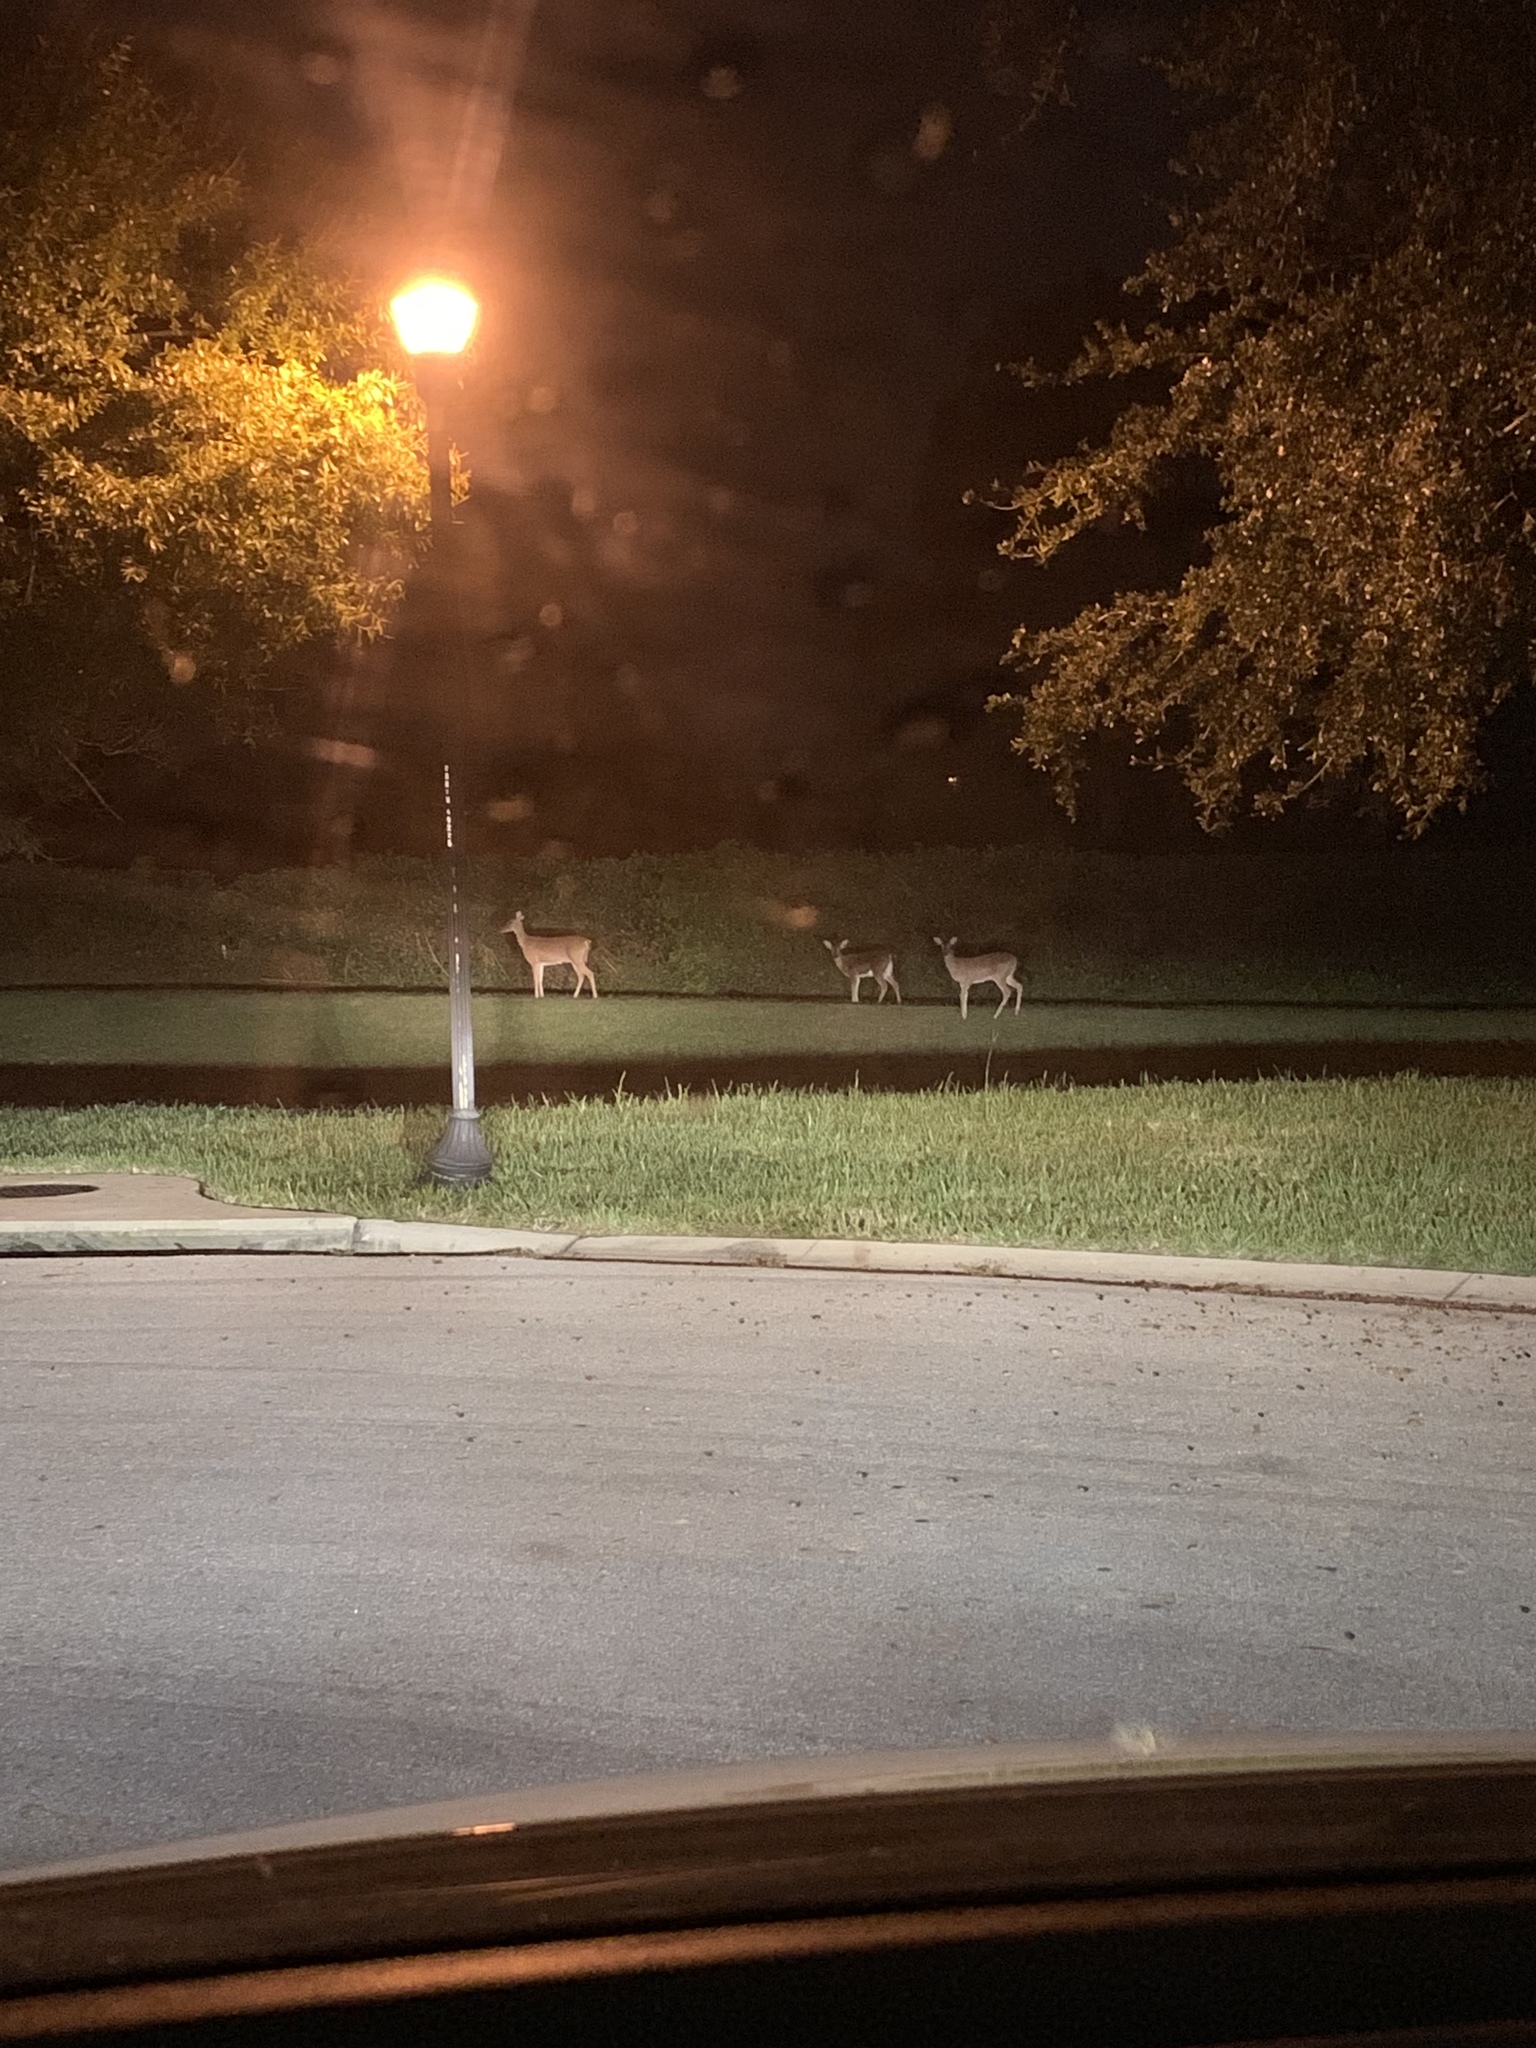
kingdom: Animalia
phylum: Chordata
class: Mammalia
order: Artiodactyla
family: Cervidae
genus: Odocoileus
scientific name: Odocoileus virginianus
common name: White-tailed deer
